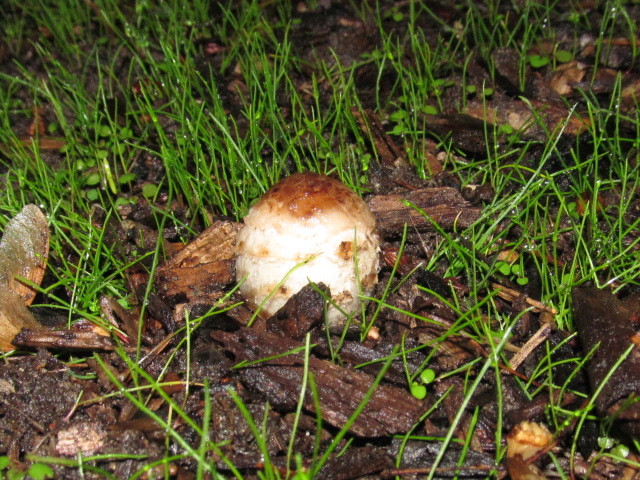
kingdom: Fungi
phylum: Basidiomycota
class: Agaricomycetes
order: Agaricales
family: Agaricaceae
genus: Coprinus
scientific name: Coprinus comatus
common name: Lawyer's wig
